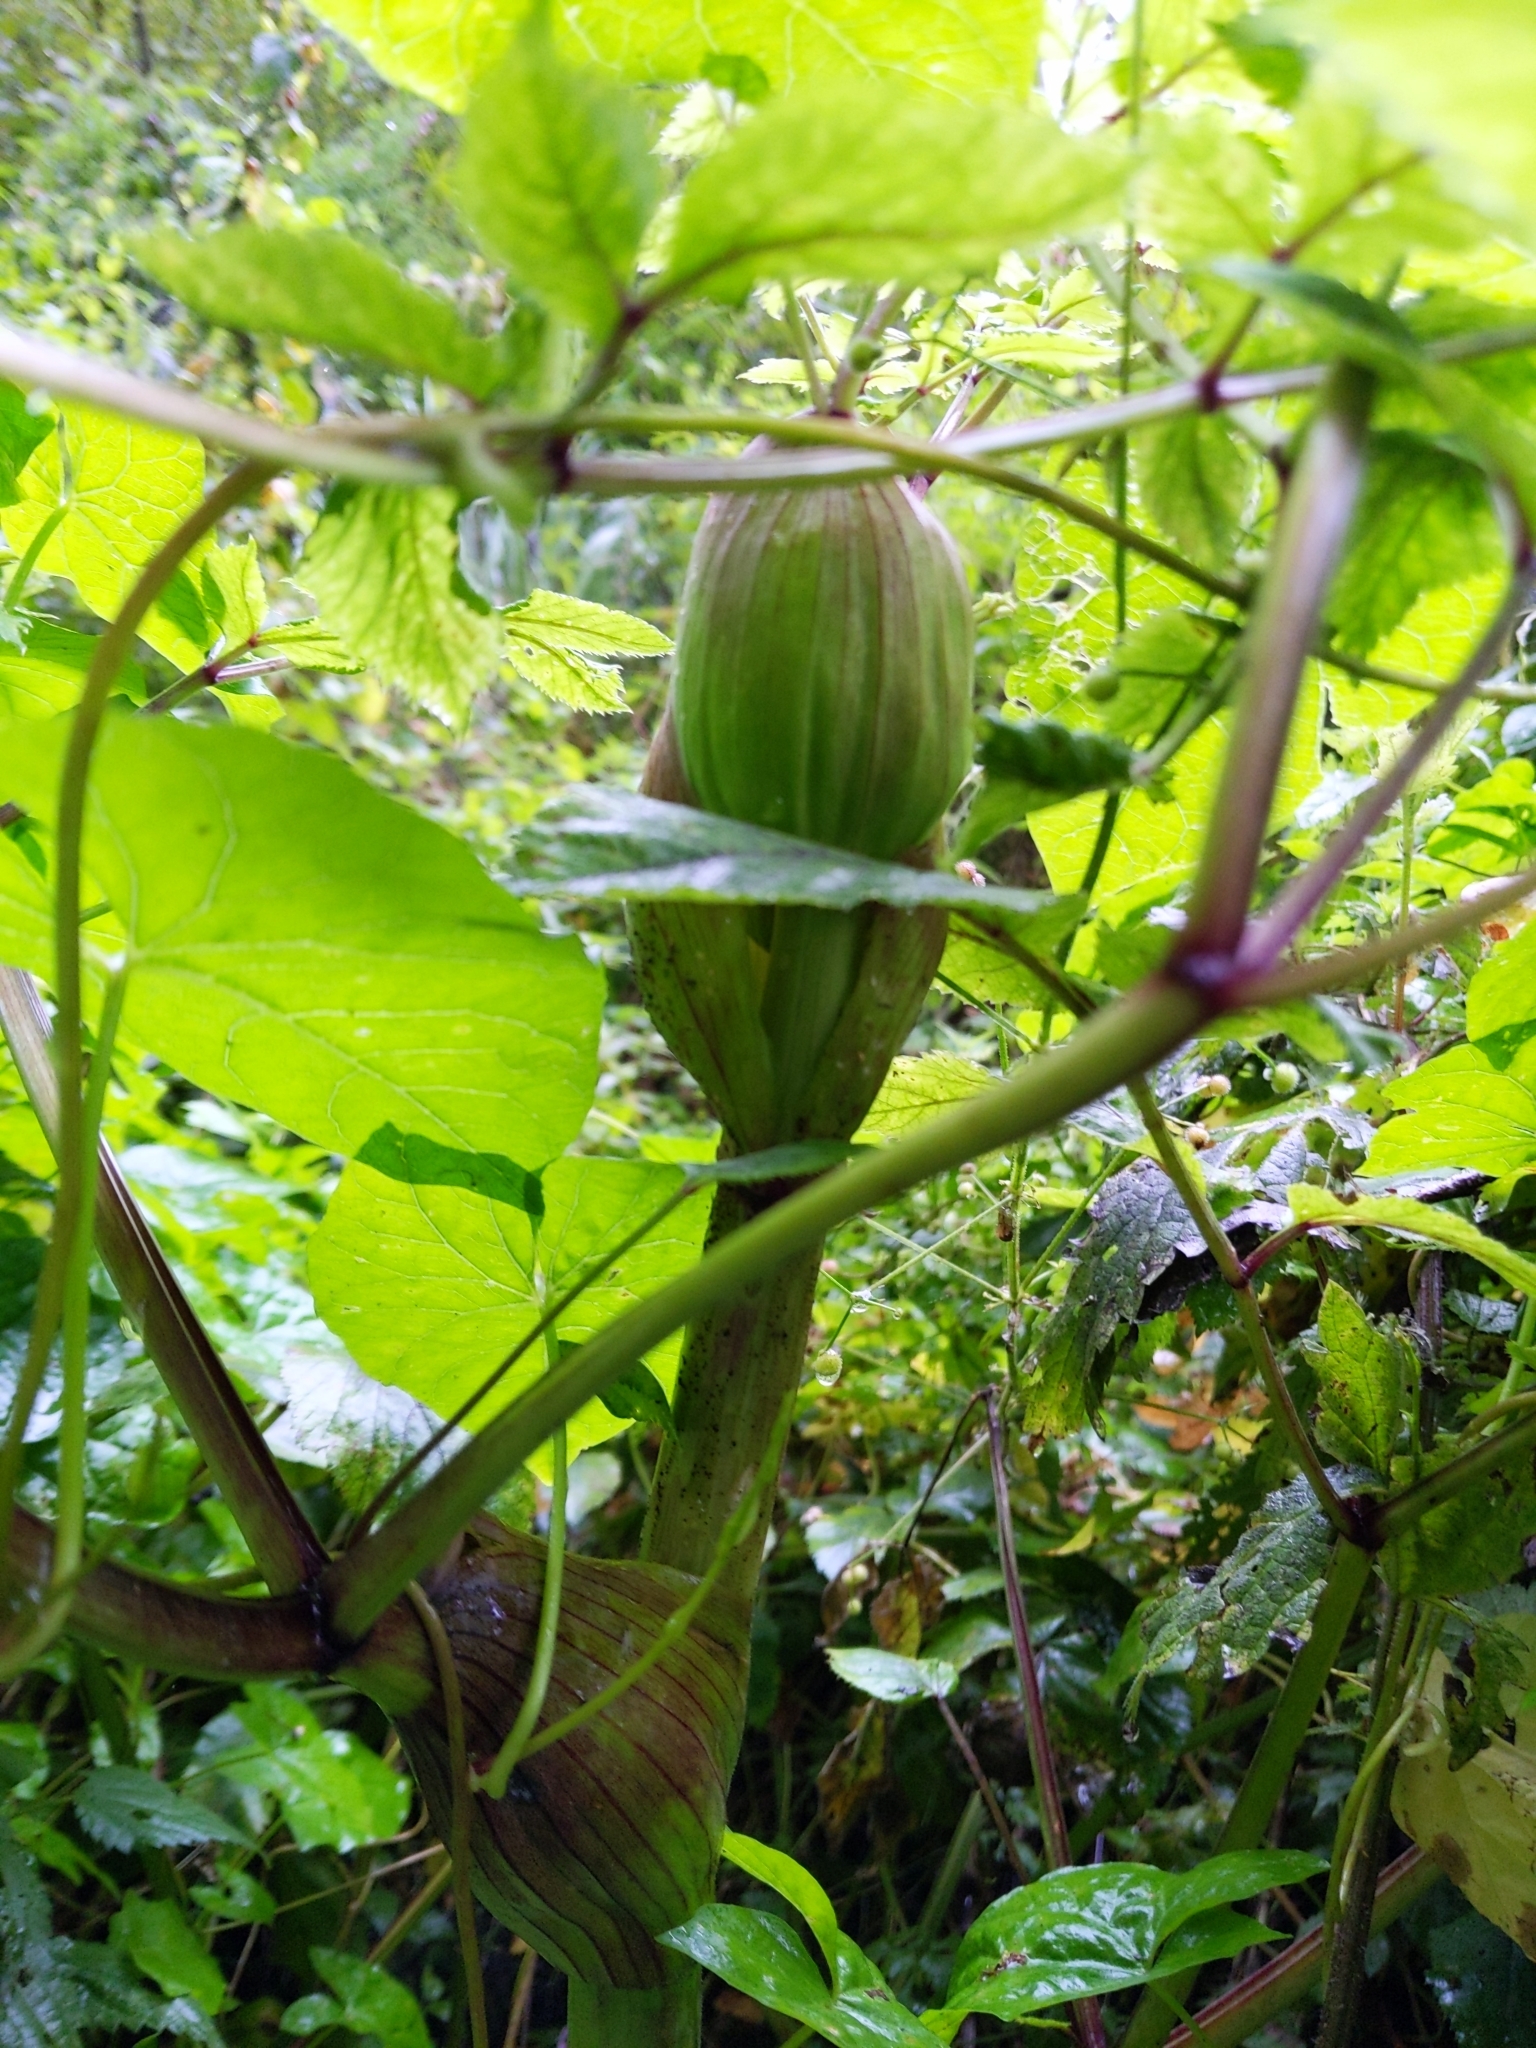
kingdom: Plantae
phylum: Tracheophyta
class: Magnoliopsida
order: Apiales
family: Apiaceae
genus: Angelica
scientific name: Angelica sylvestris
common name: Wild angelica
